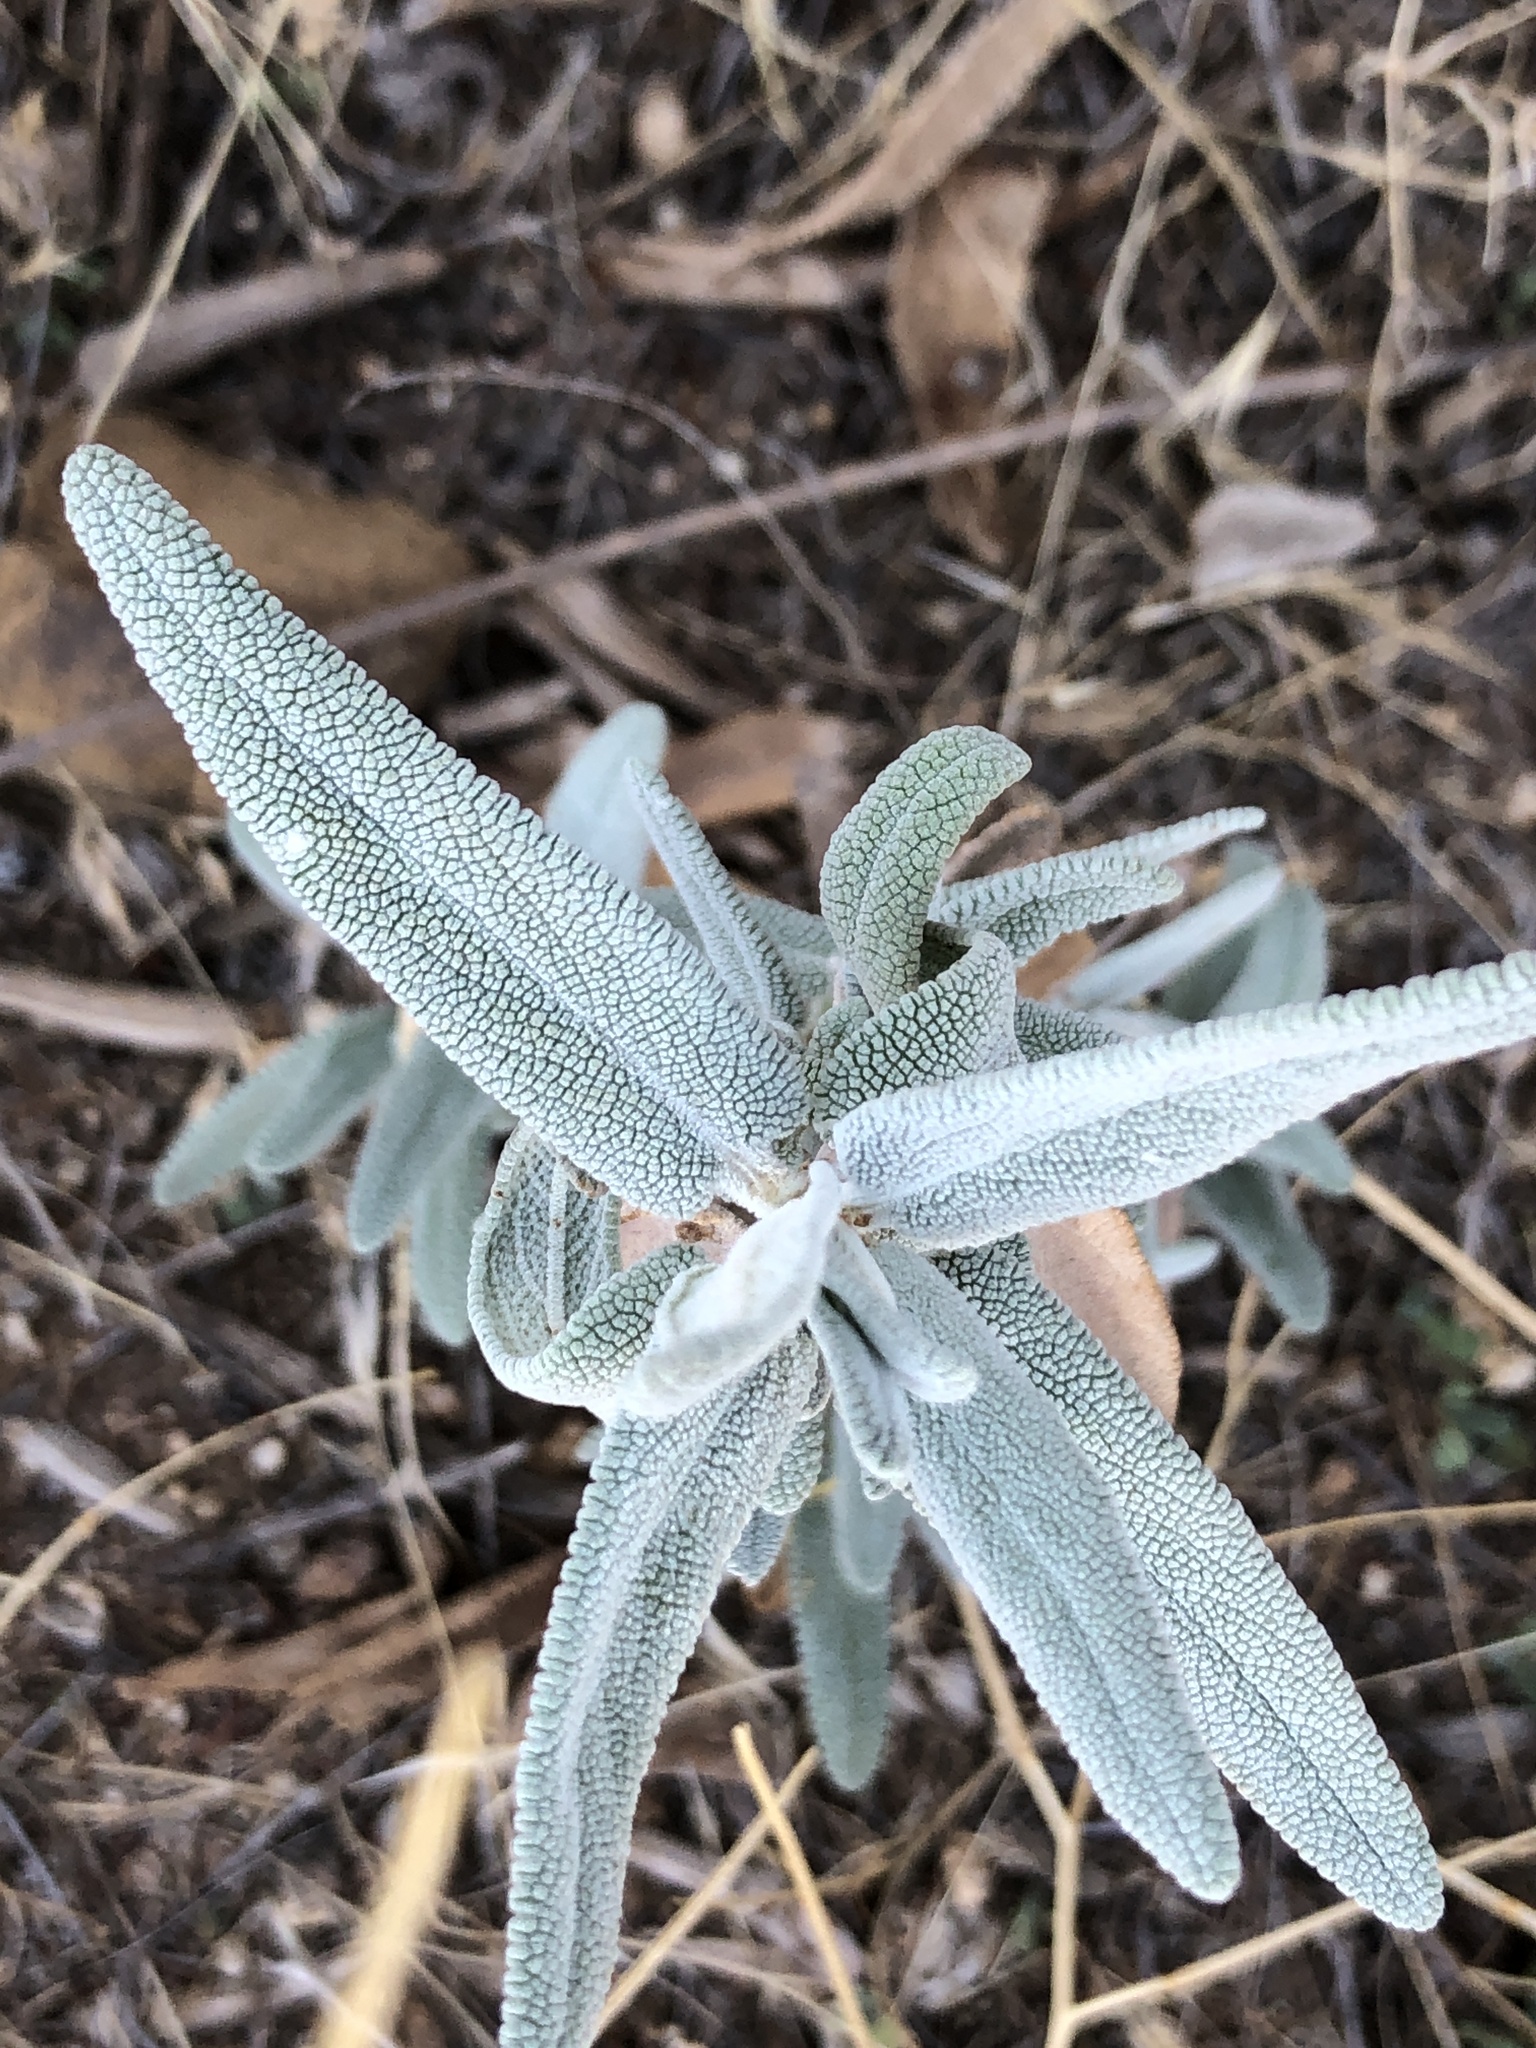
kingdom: Plantae
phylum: Tracheophyta
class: Magnoliopsida
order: Lamiales
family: Lamiaceae
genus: Salvia
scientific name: Salvia leucophylla
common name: Purple sage
